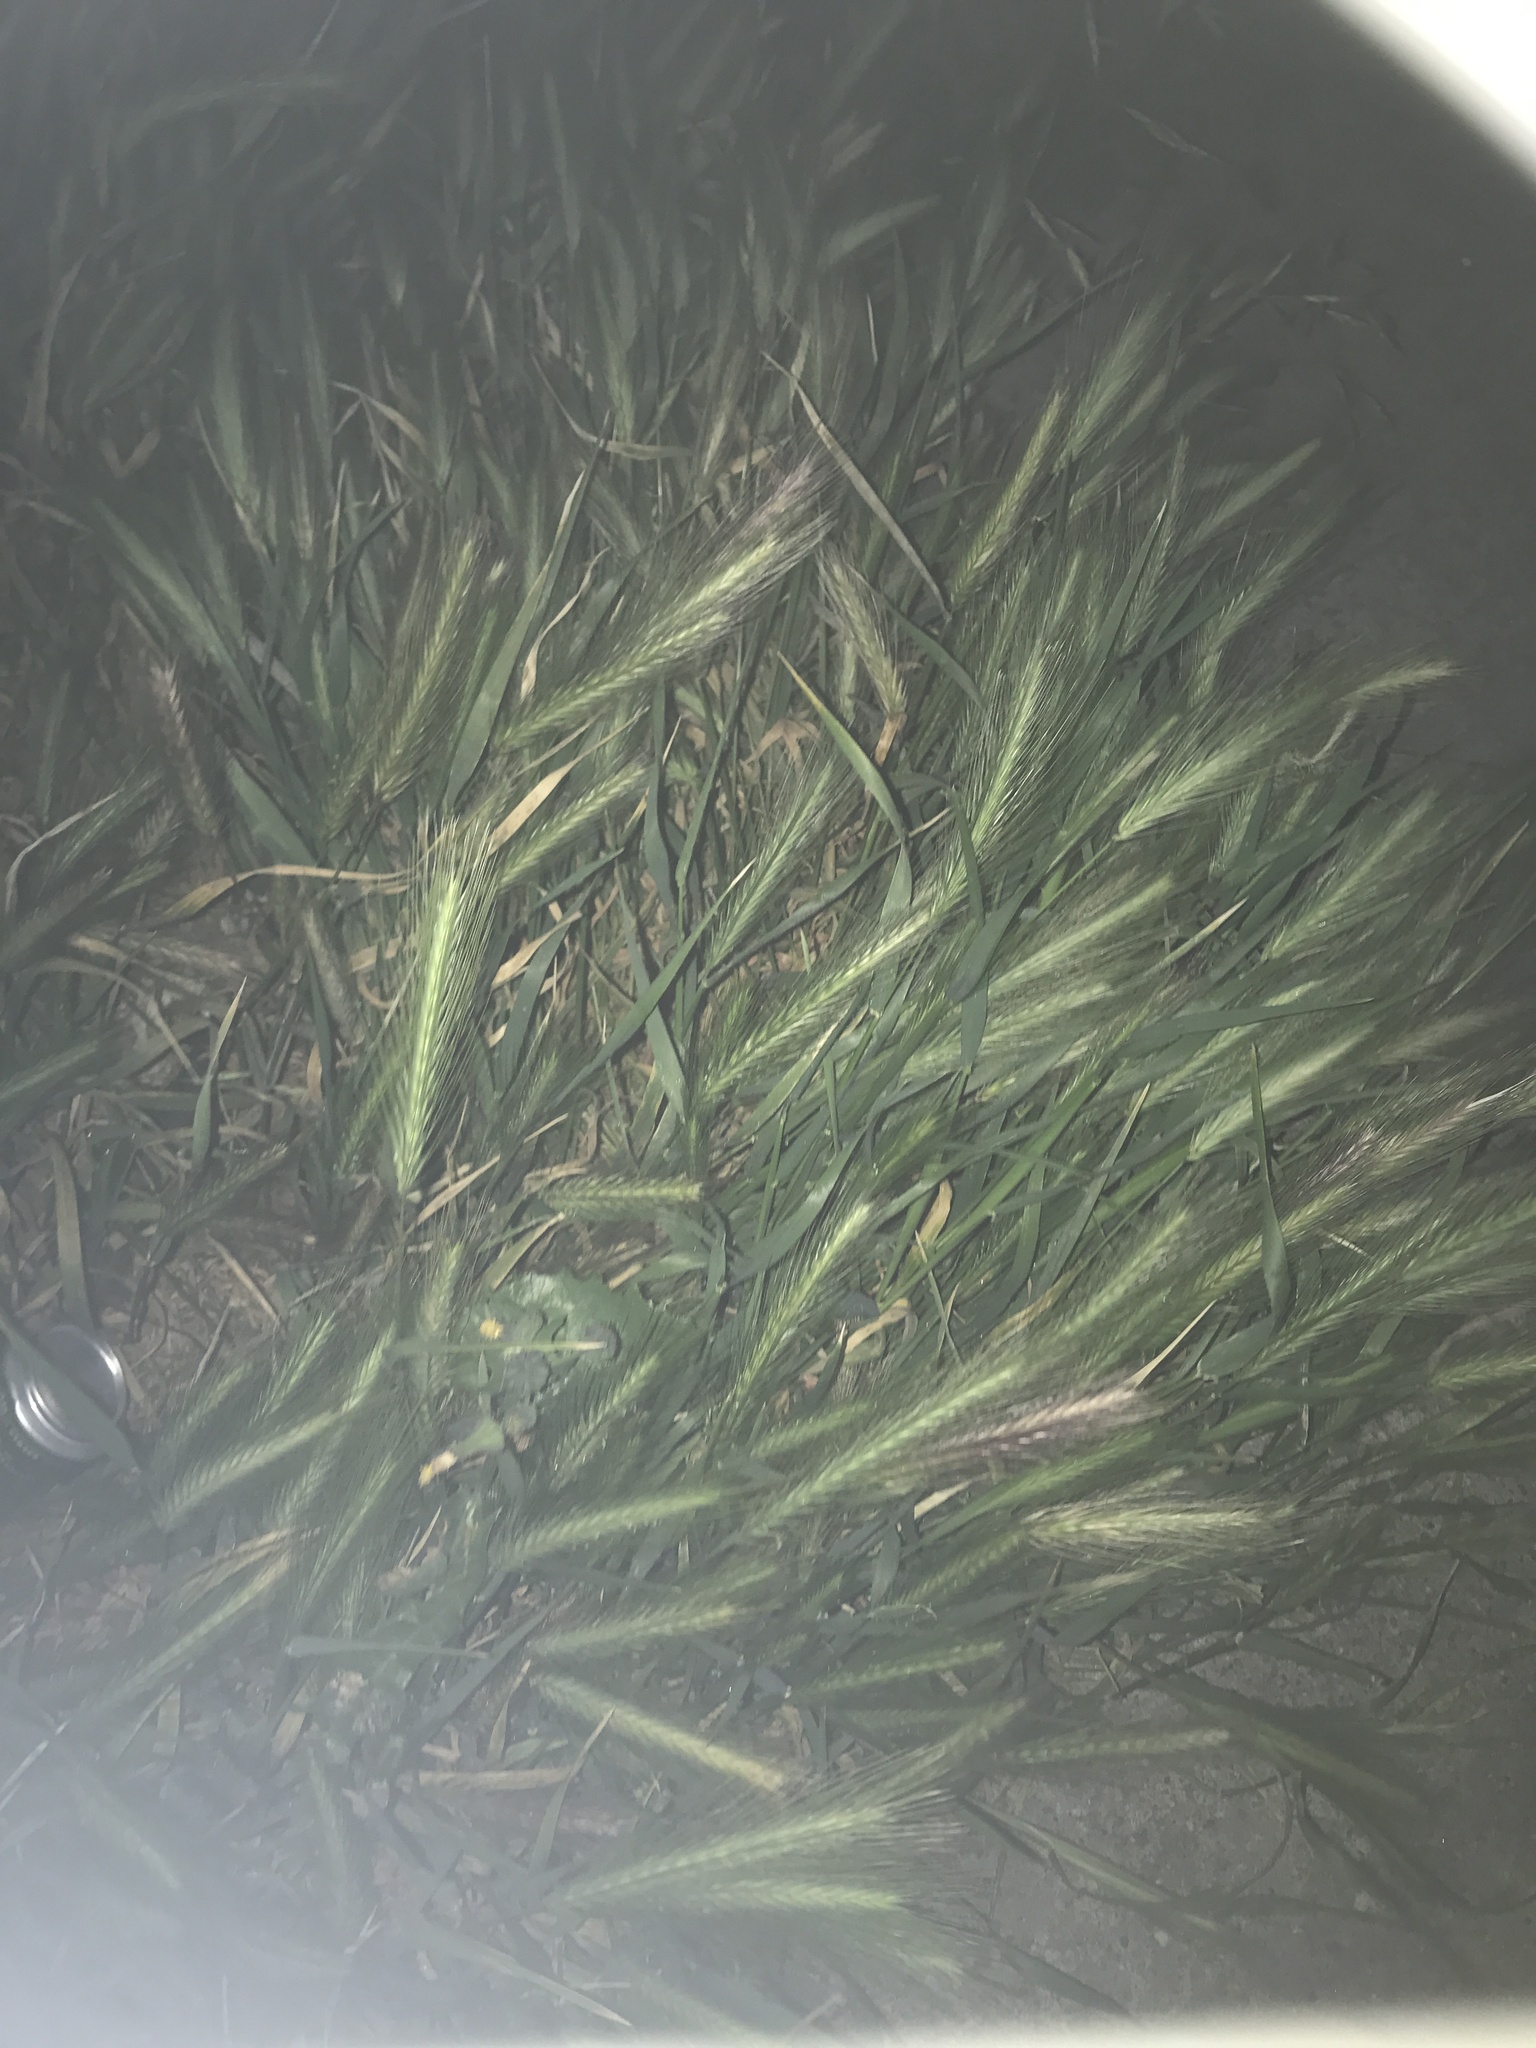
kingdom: Plantae
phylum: Tracheophyta
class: Liliopsida
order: Poales
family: Poaceae
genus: Hordeum
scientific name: Hordeum murinum
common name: Wall barley
